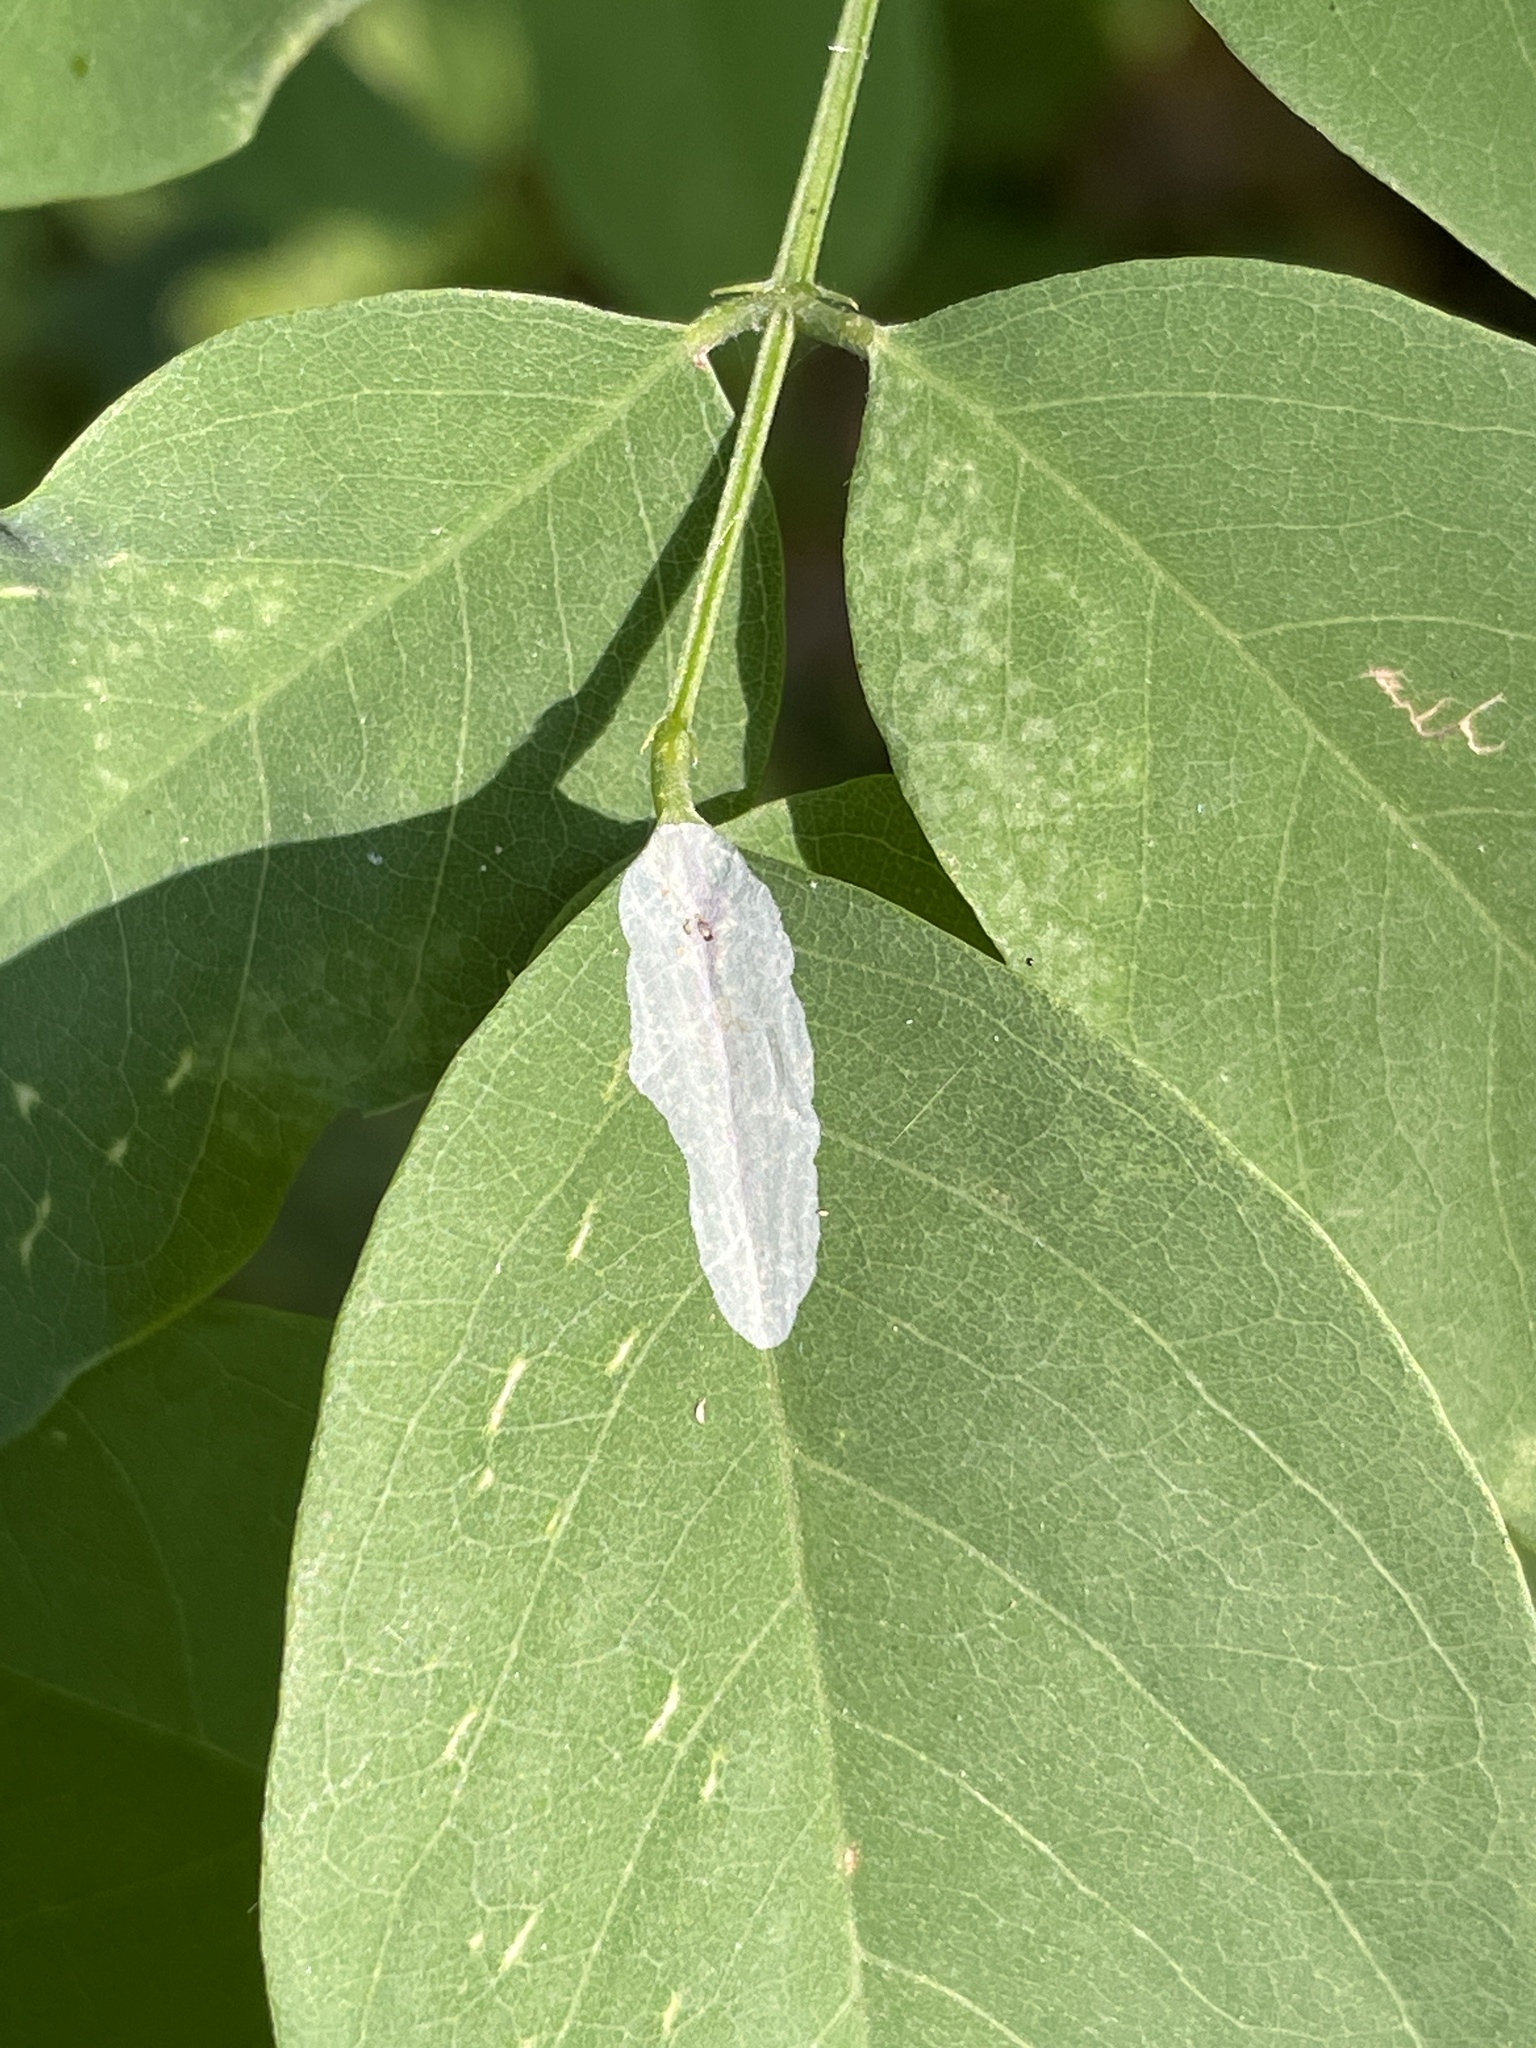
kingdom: Animalia
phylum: Arthropoda
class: Insecta
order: Lepidoptera
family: Gracillariidae
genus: Macrosaccus
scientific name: Macrosaccus robiniella
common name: Leaf blotch miner moth
